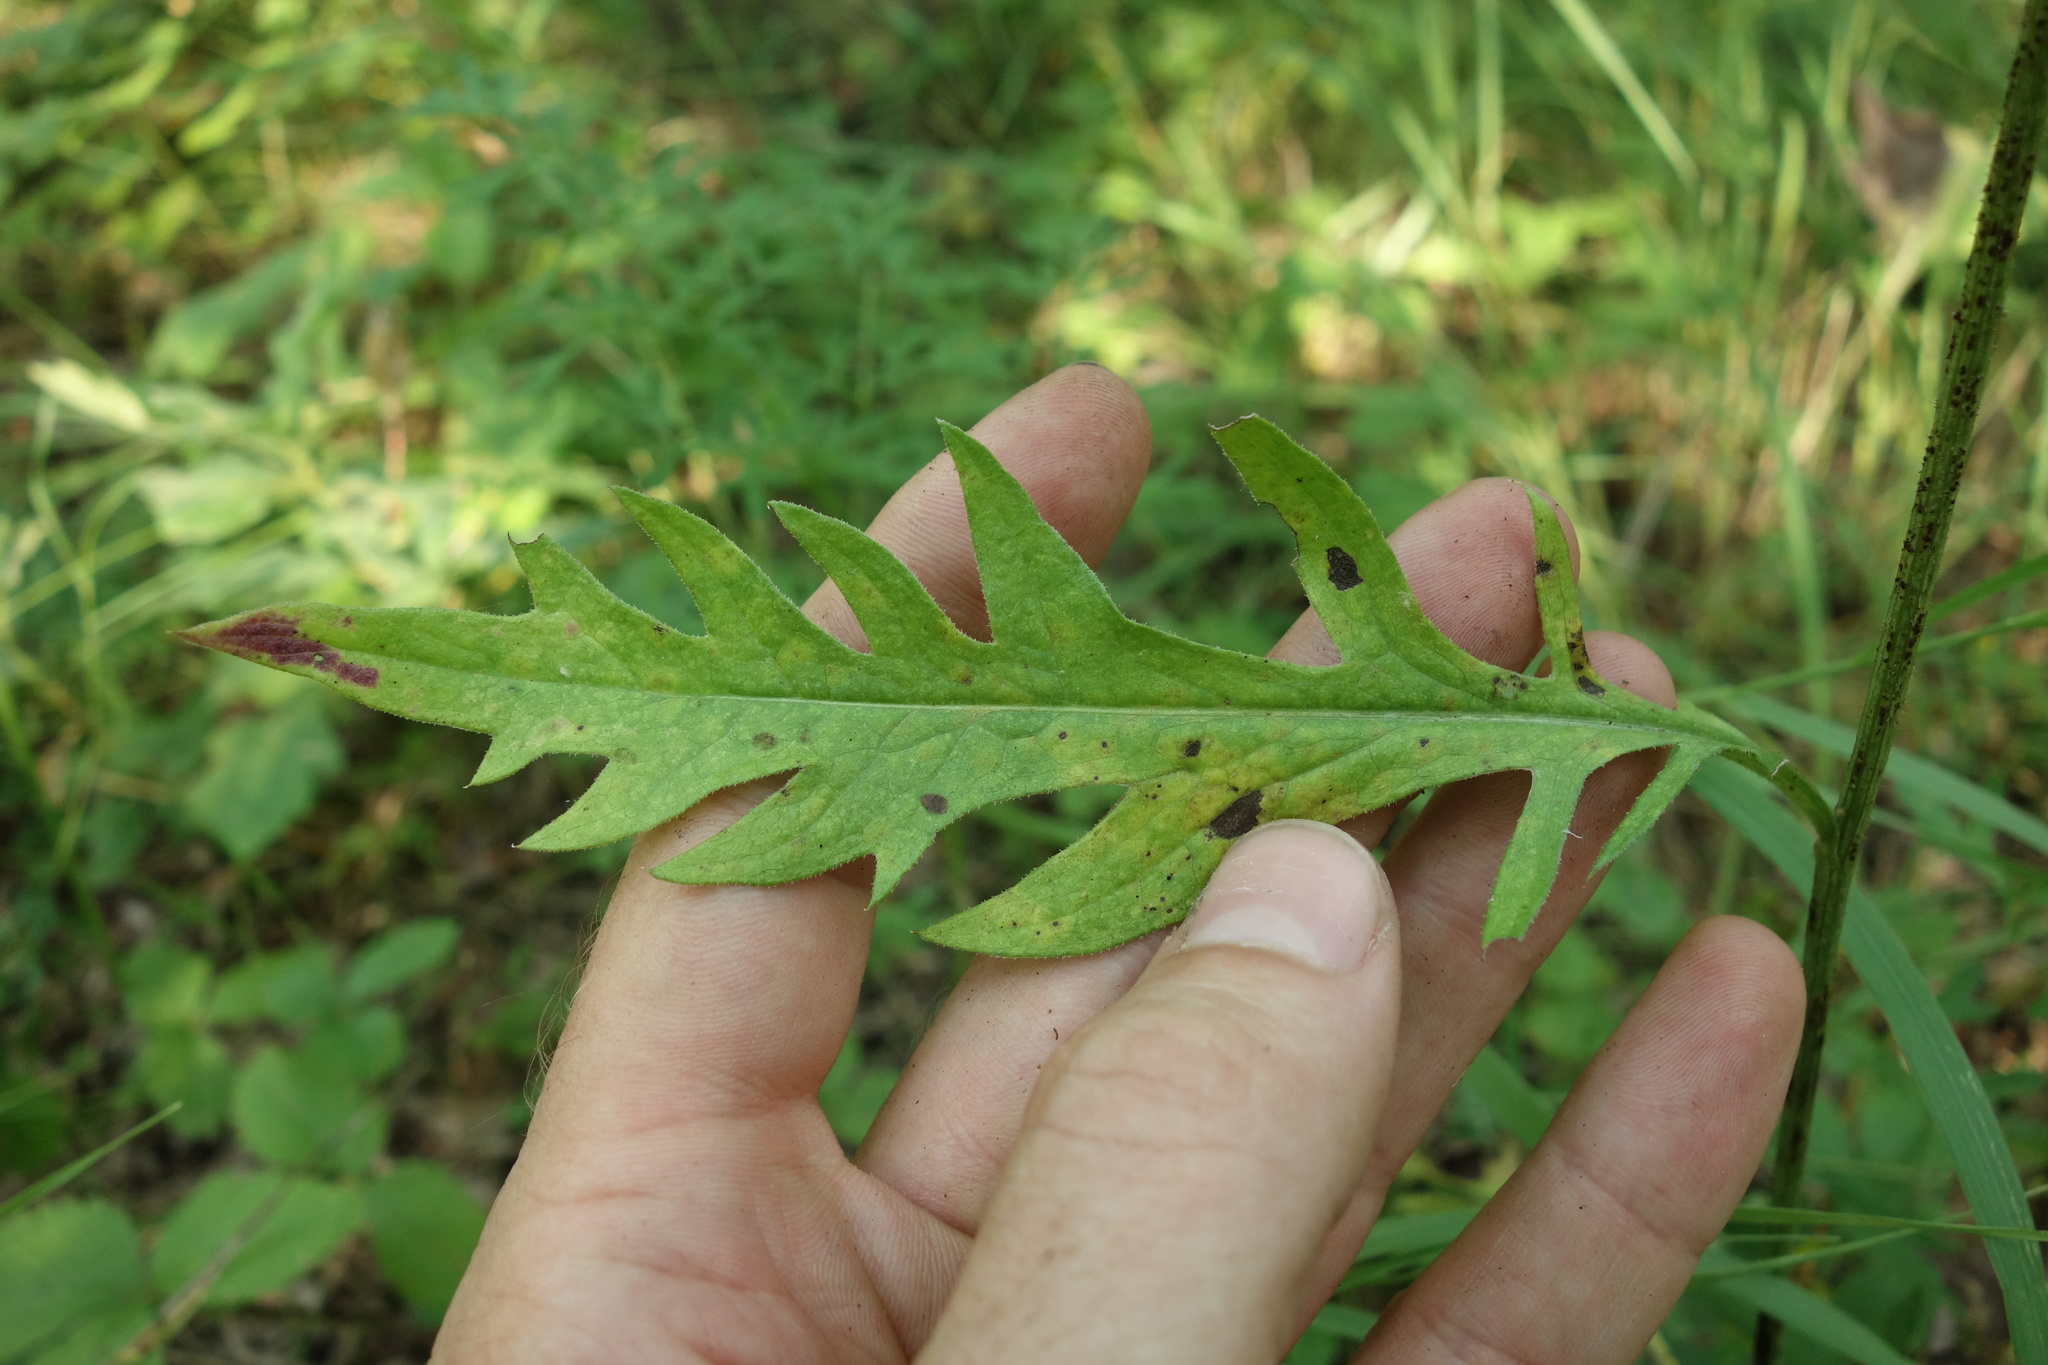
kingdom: Plantae
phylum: Tracheophyta
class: Magnoliopsida
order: Asterales
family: Asteraceae
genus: Klasea
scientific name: Klasea lycopifolia
